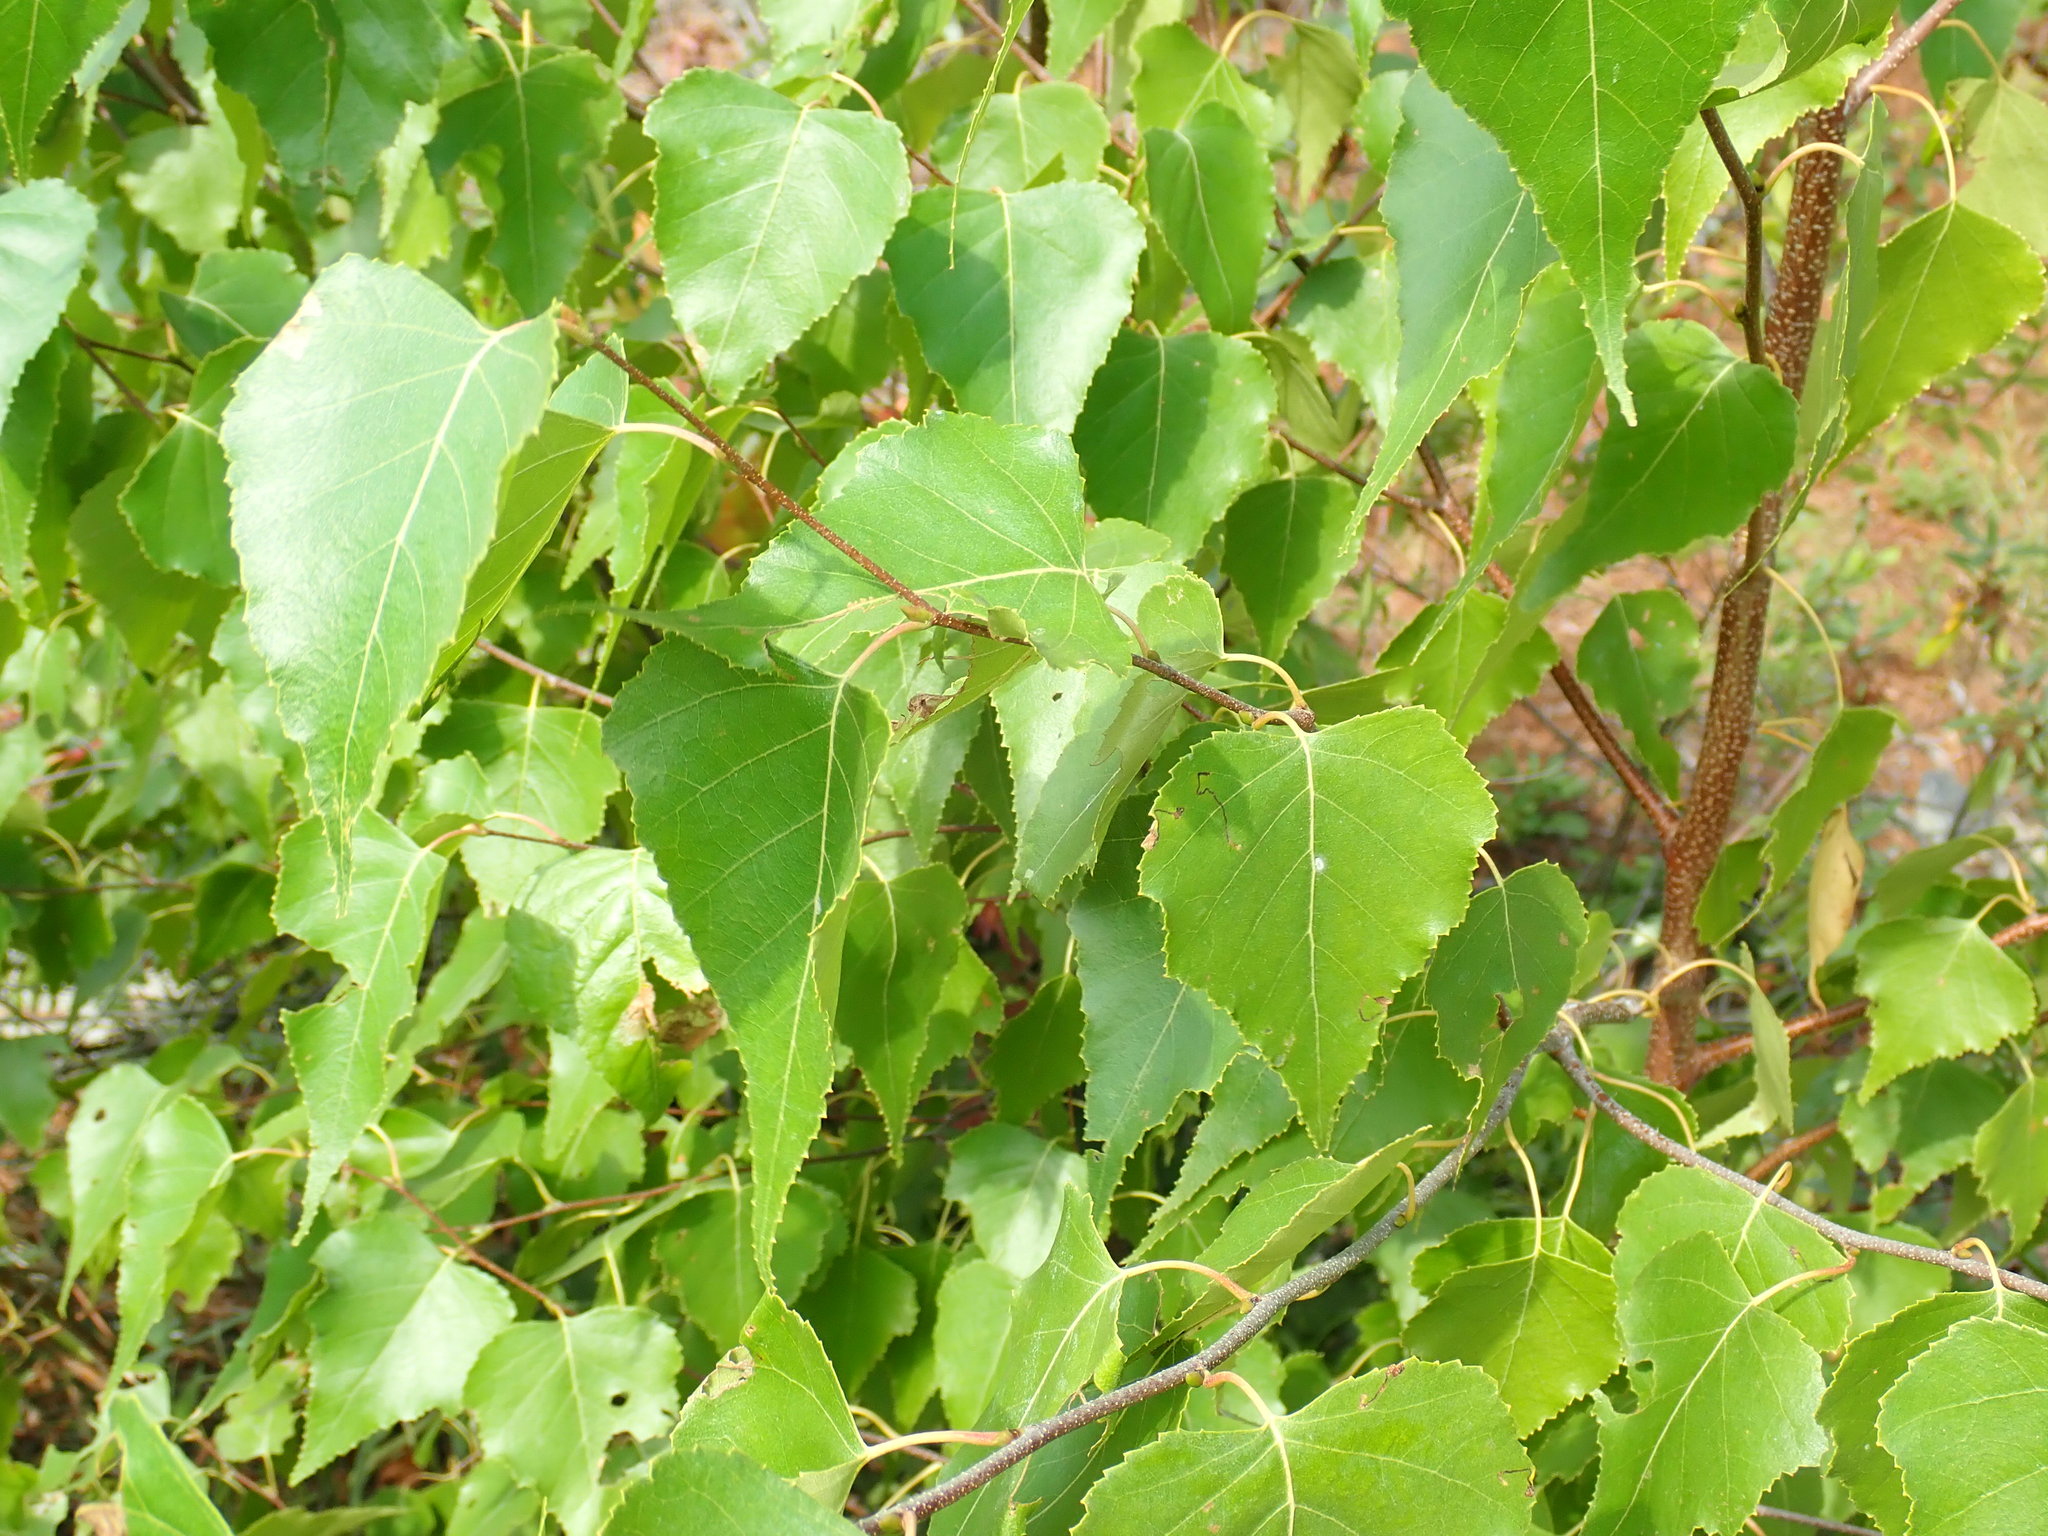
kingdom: Plantae
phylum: Tracheophyta
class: Magnoliopsida
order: Fagales
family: Betulaceae
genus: Betula
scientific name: Betula populifolia
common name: Fire birch
